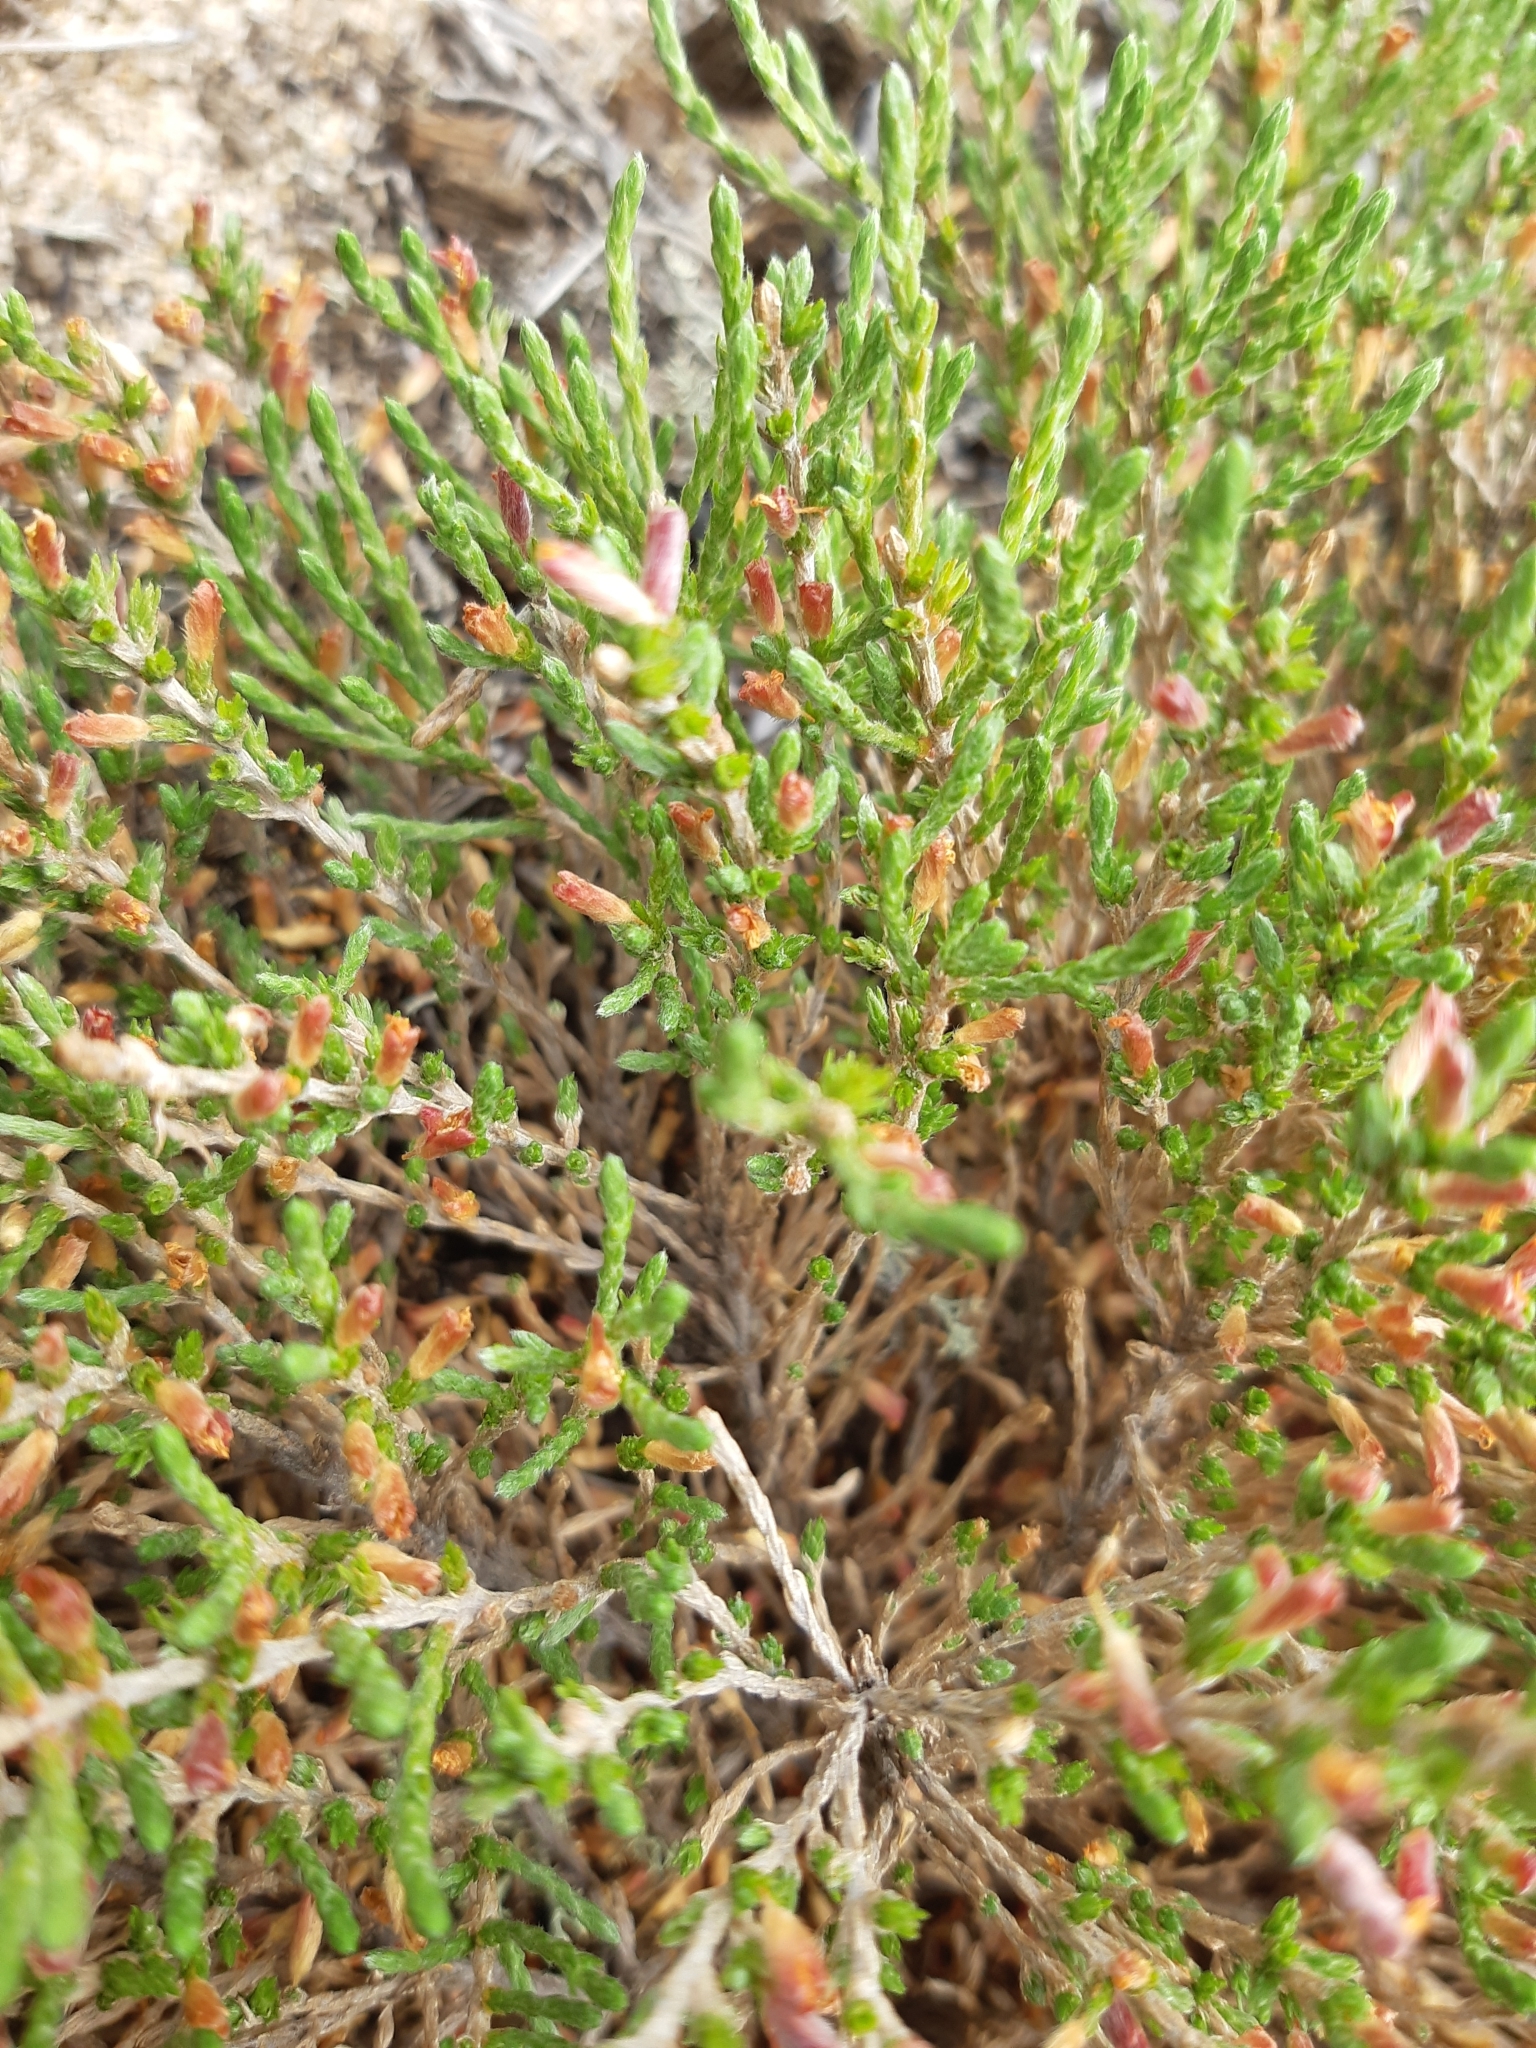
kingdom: Plantae
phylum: Tracheophyta
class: Magnoliopsida
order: Malvales
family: Cistaceae
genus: Hudsonia
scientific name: Hudsonia tomentosa
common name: Beach-heath
